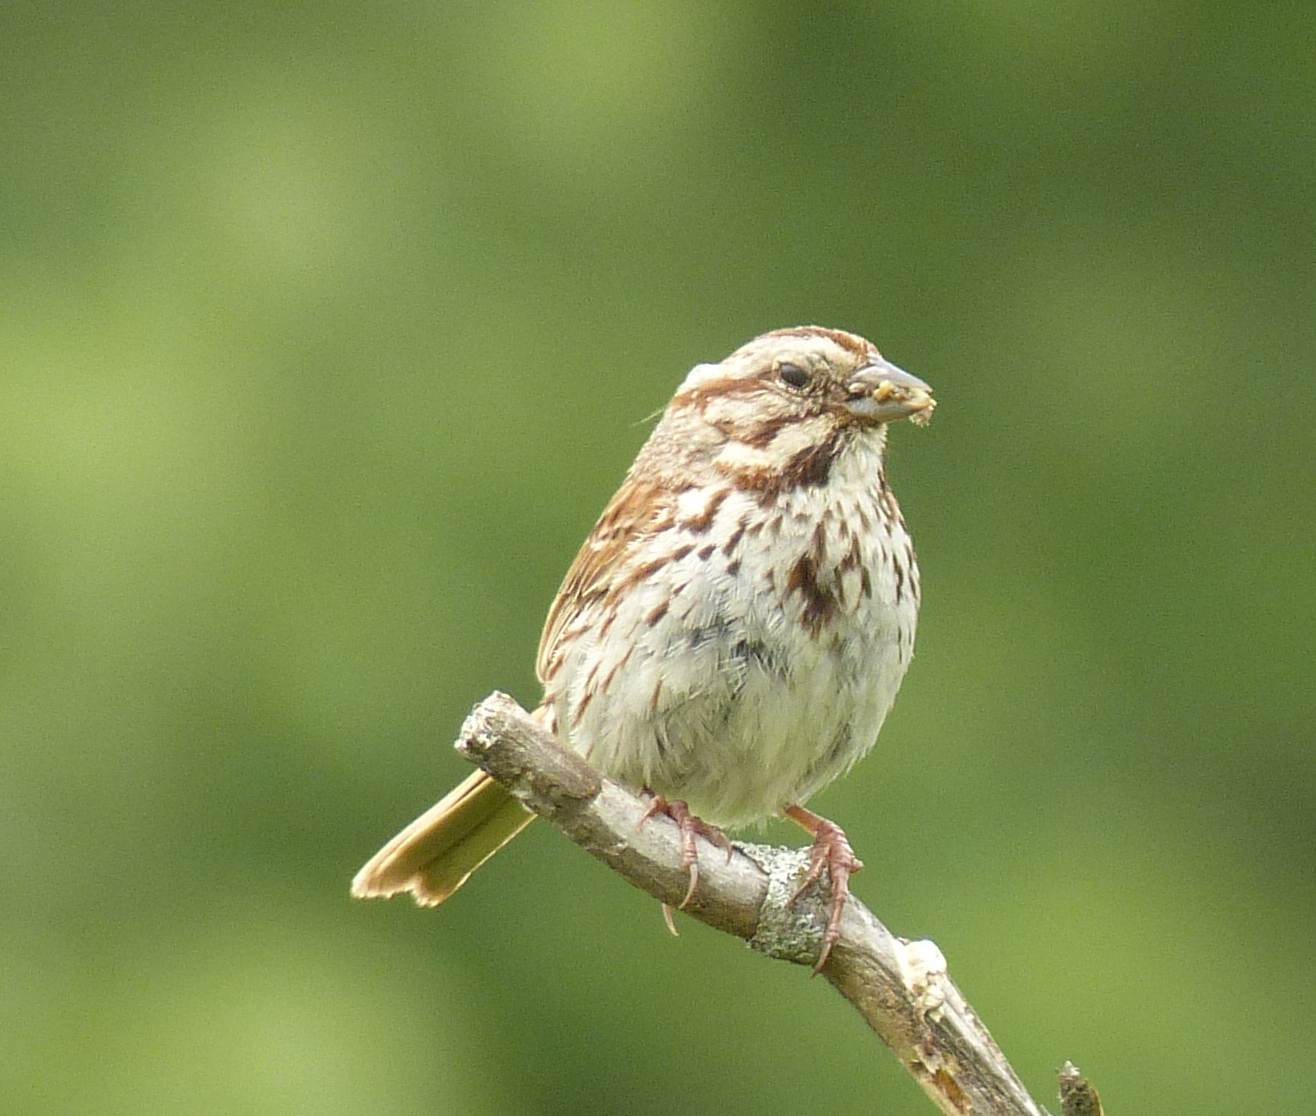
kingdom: Animalia
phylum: Chordata
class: Aves
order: Passeriformes
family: Passerellidae
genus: Melospiza
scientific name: Melospiza melodia
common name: Song sparrow
